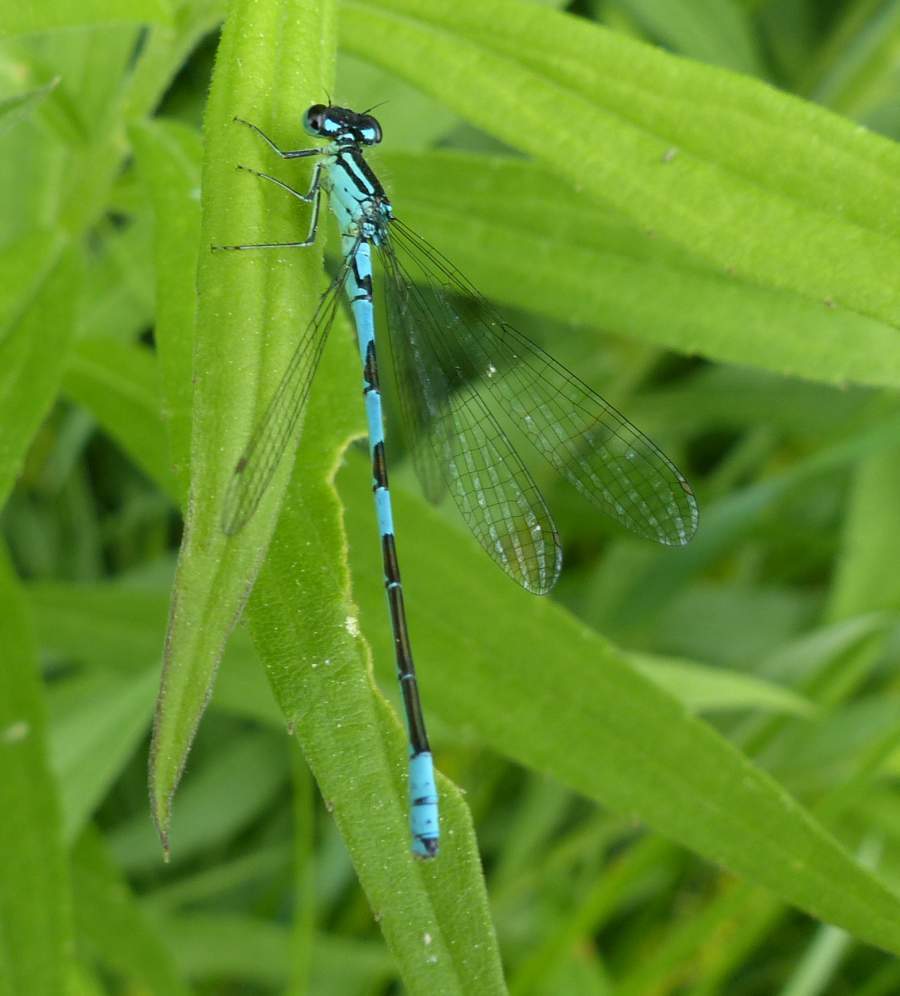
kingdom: Animalia
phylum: Arthropoda
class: Insecta
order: Odonata
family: Coenagrionidae
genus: Coenagrion
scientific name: Coenagrion resolutum
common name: Taiga bluet
